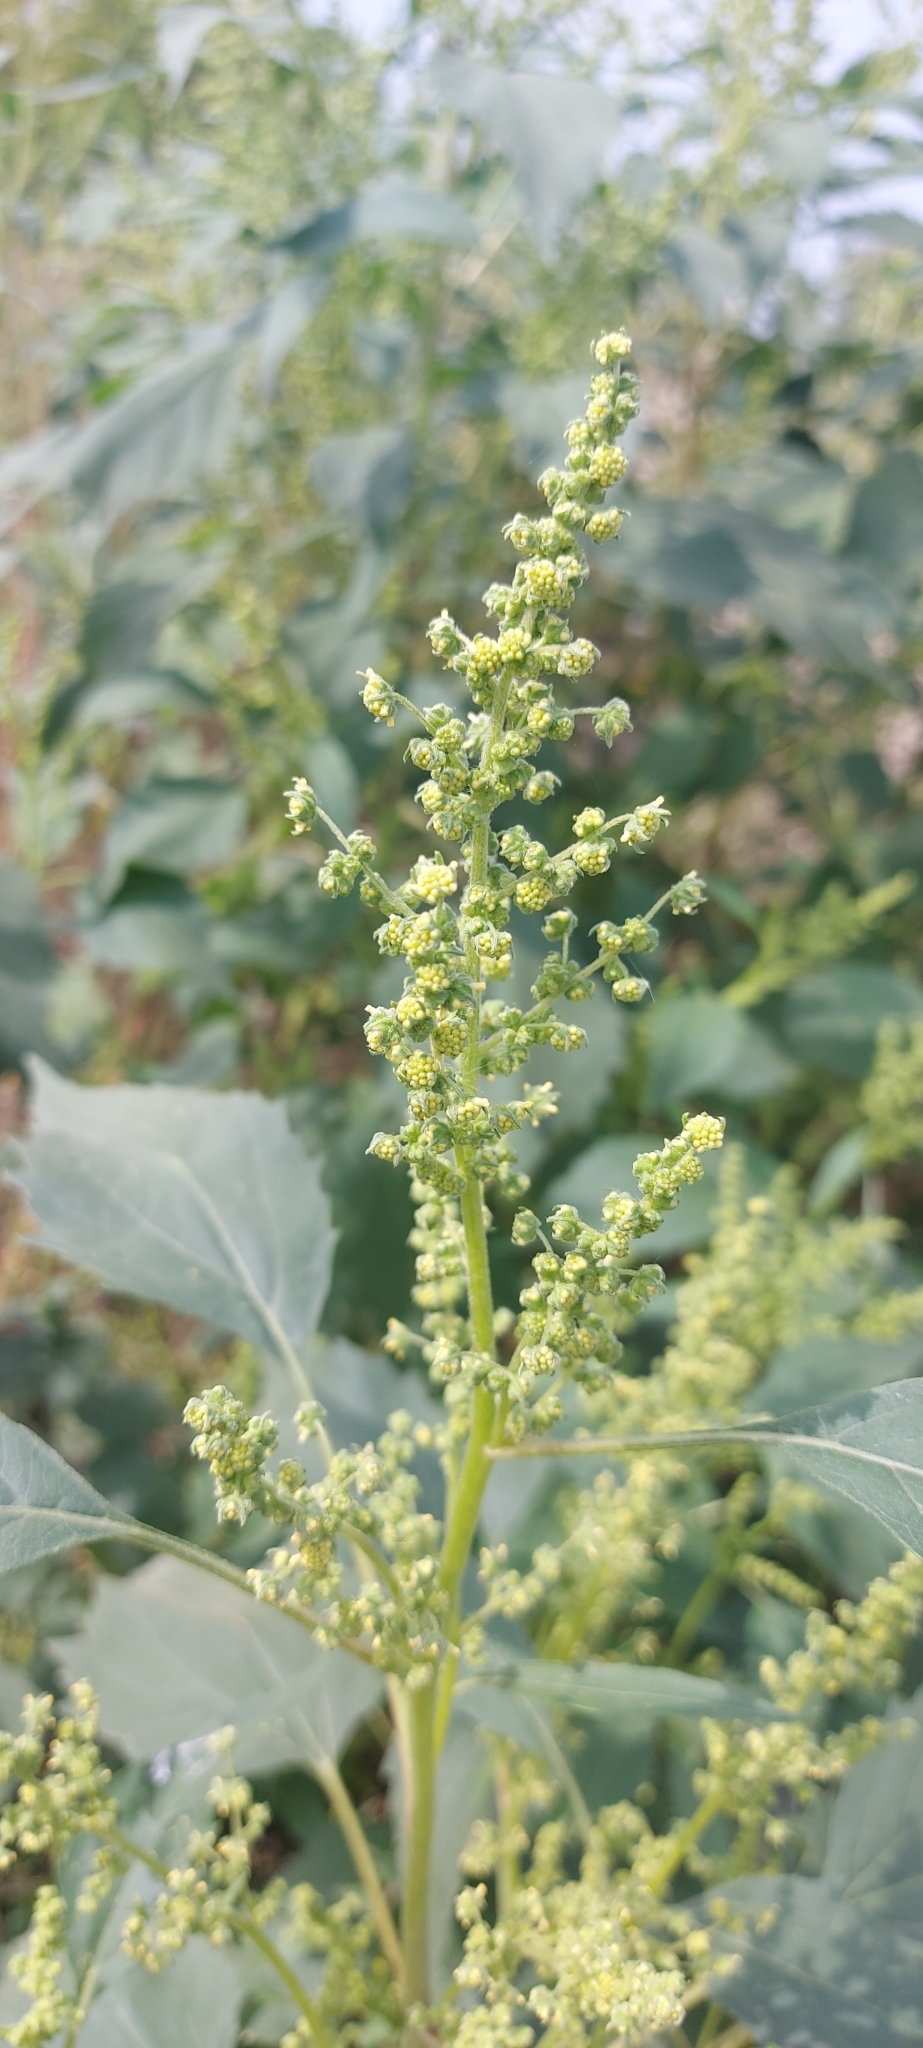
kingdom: Plantae
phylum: Tracheophyta
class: Magnoliopsida
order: Asterales
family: Asteraceae
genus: Cyclachaena
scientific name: Cyclachaena xanthiifolia
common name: Giant sumpweed
